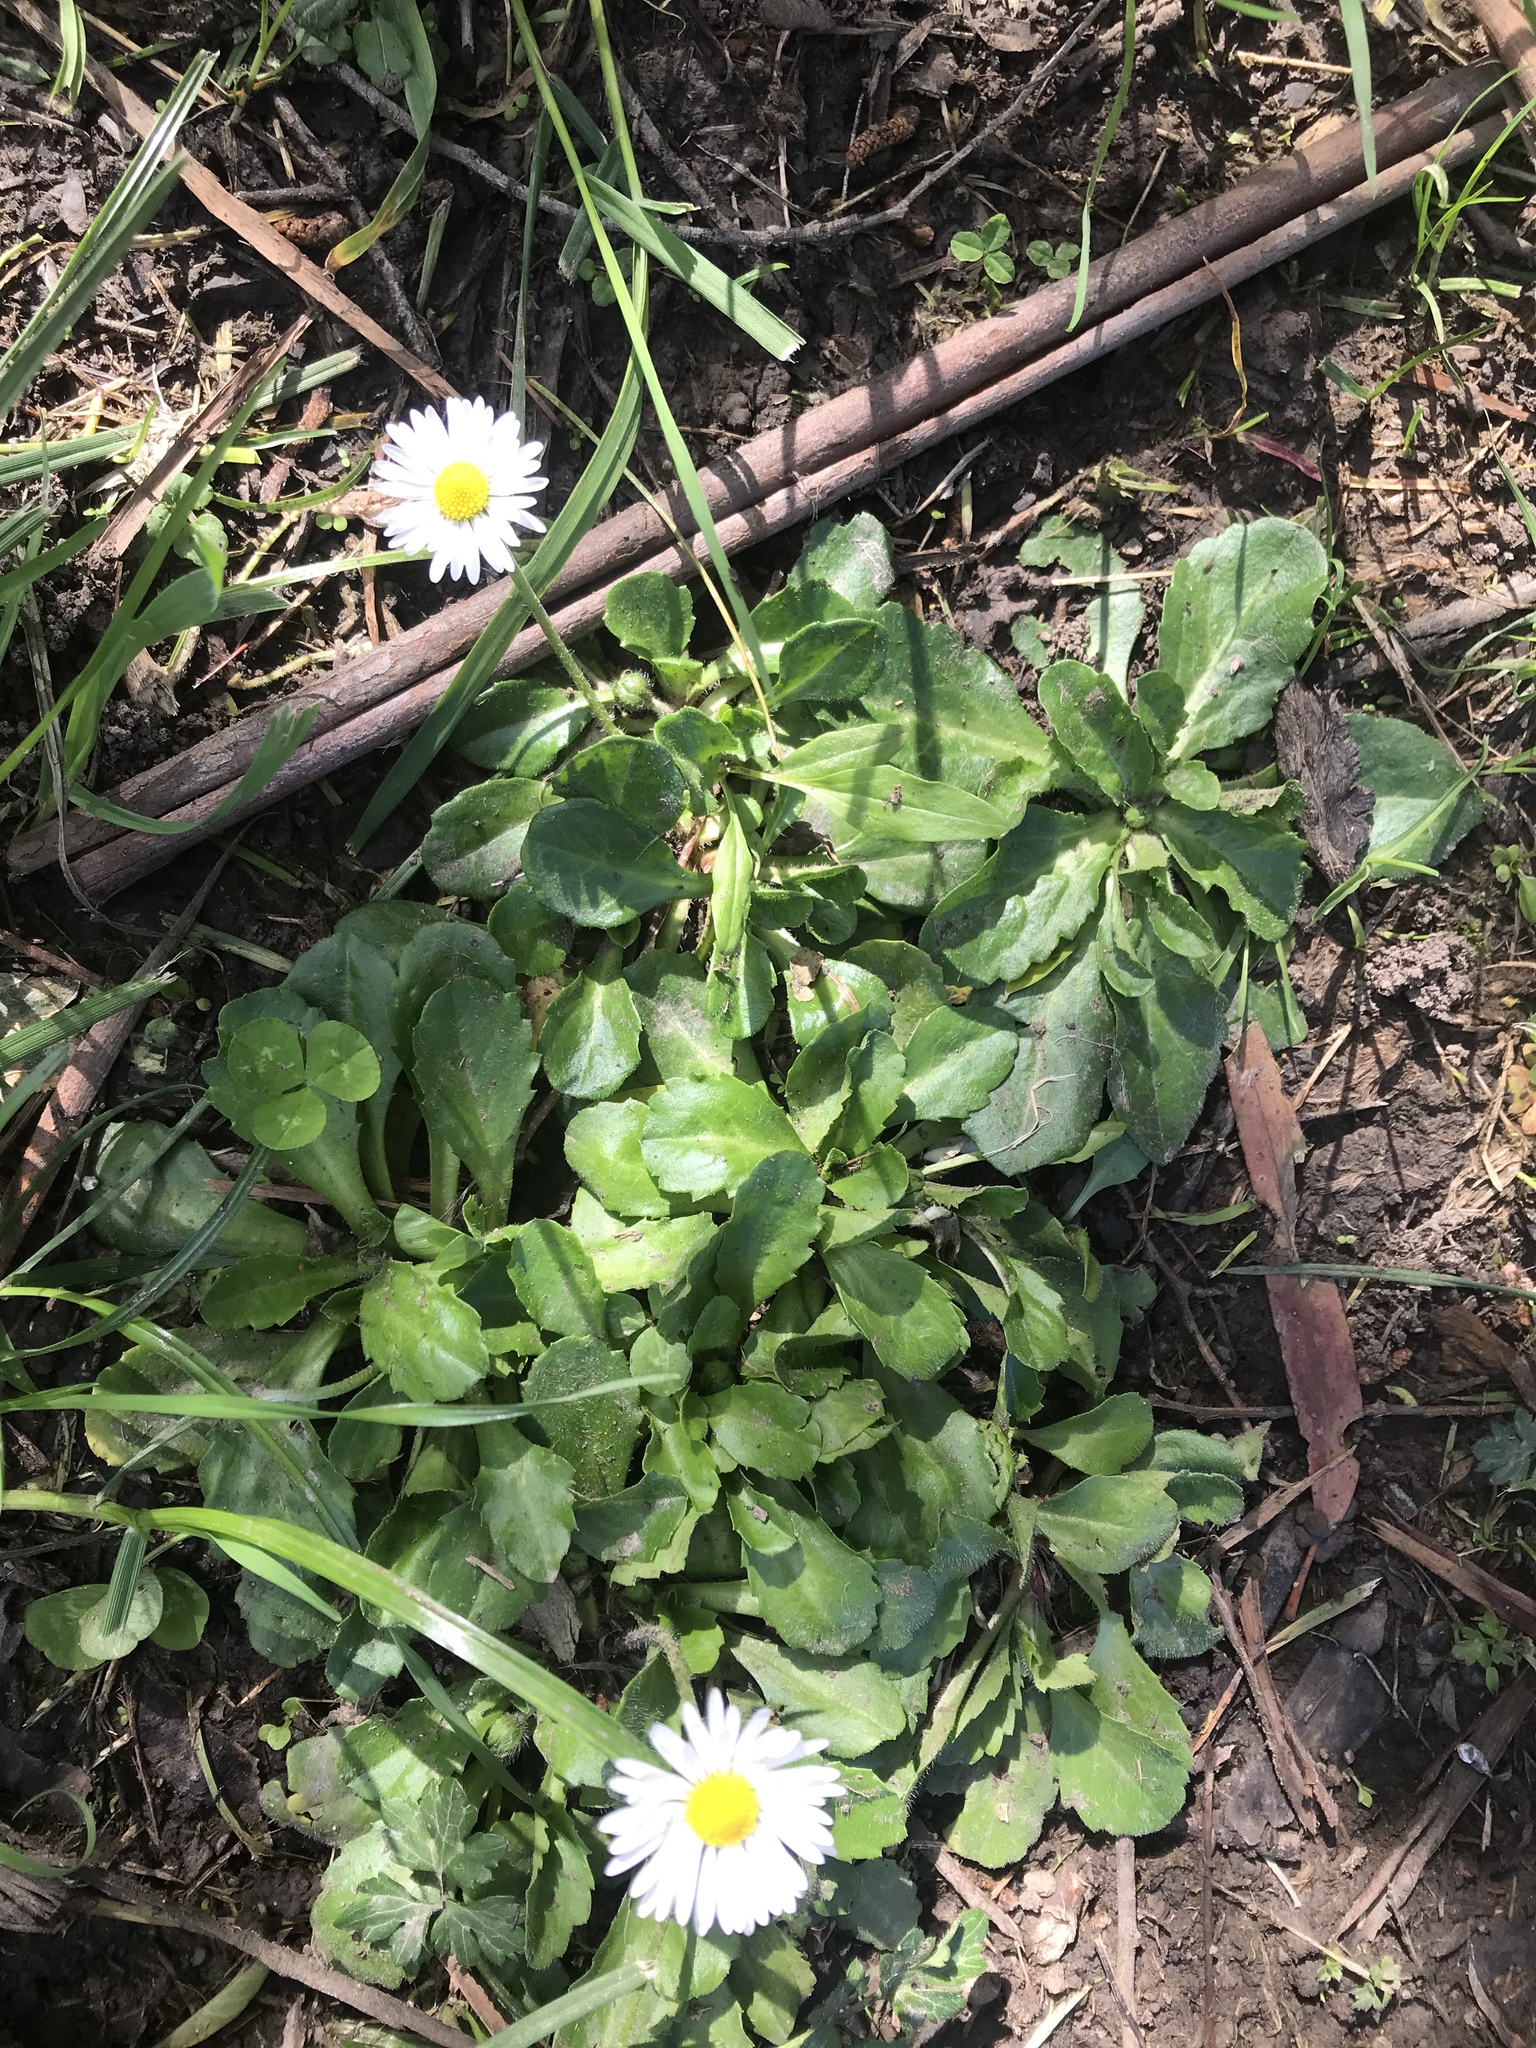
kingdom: Plantae
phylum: Tracheophyta
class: Magnoliopsida
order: Asterales
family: Asteraceae
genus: Bellis
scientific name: Bellis perennis
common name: Lawndaisy
